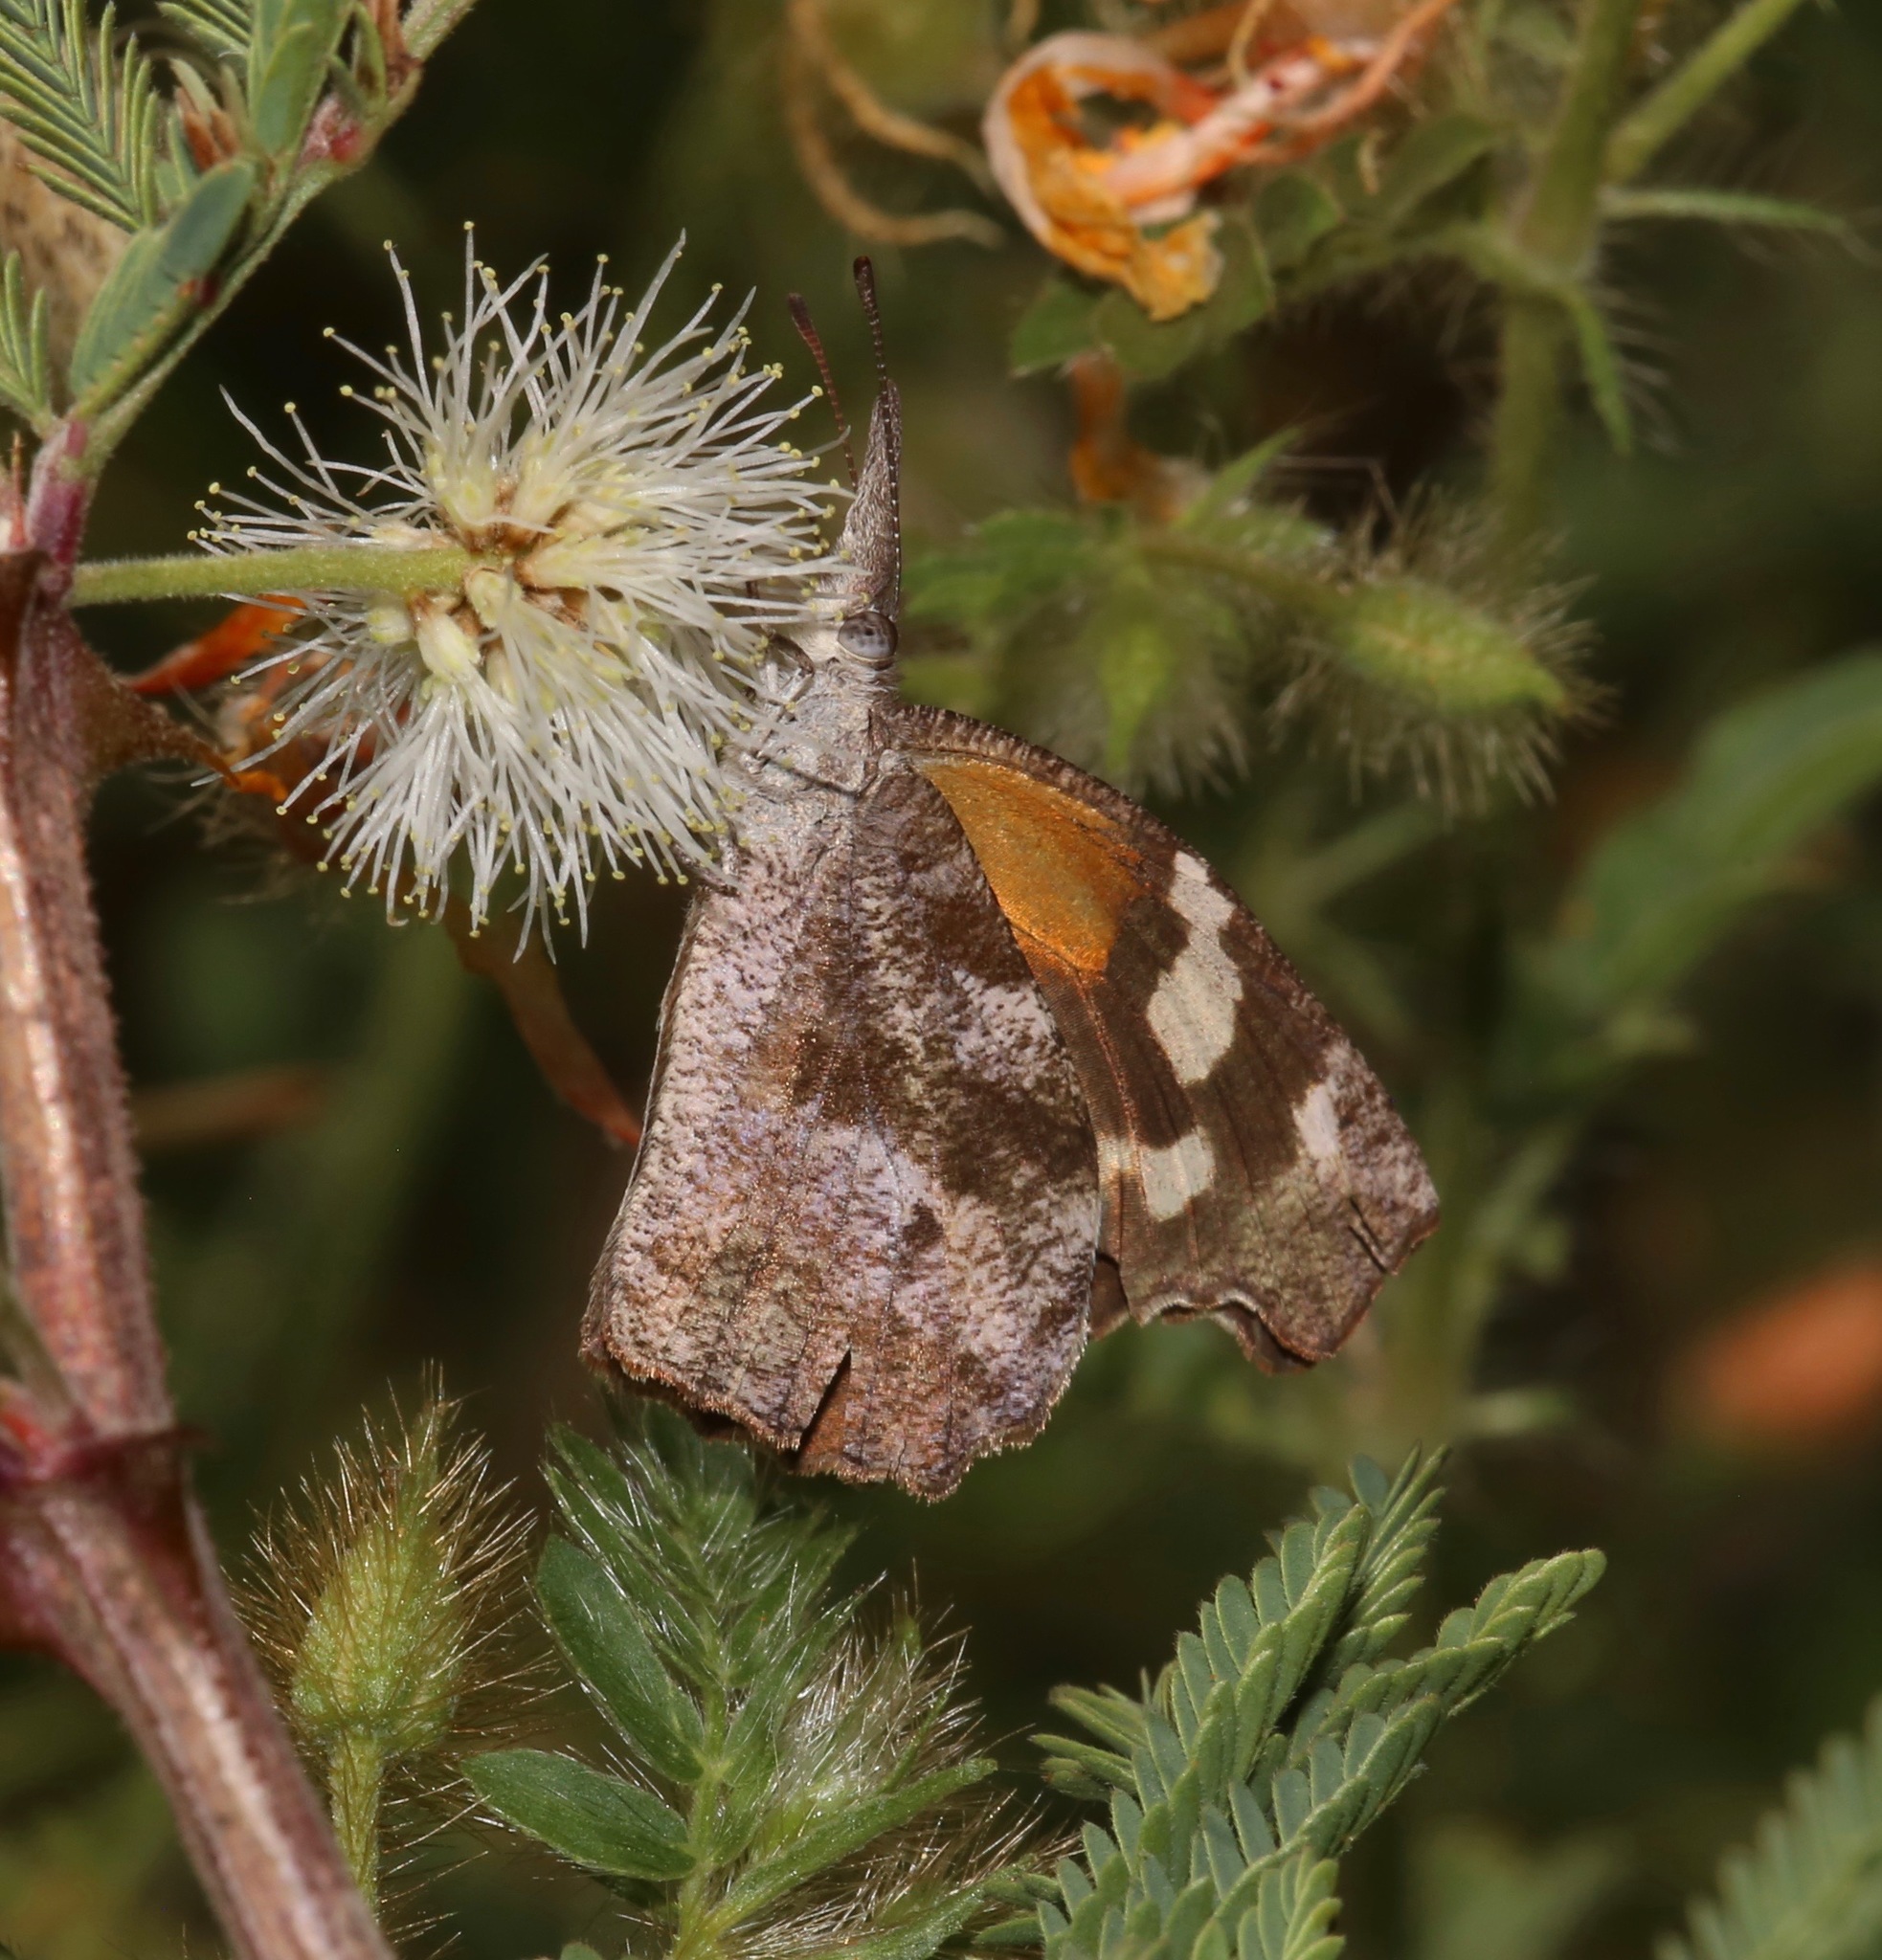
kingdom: Animalia
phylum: Arthropoda
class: Insecta
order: Lepidoptera
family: Nymphalidae
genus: Libytheana
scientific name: Libytheana carinenta
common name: American snout
